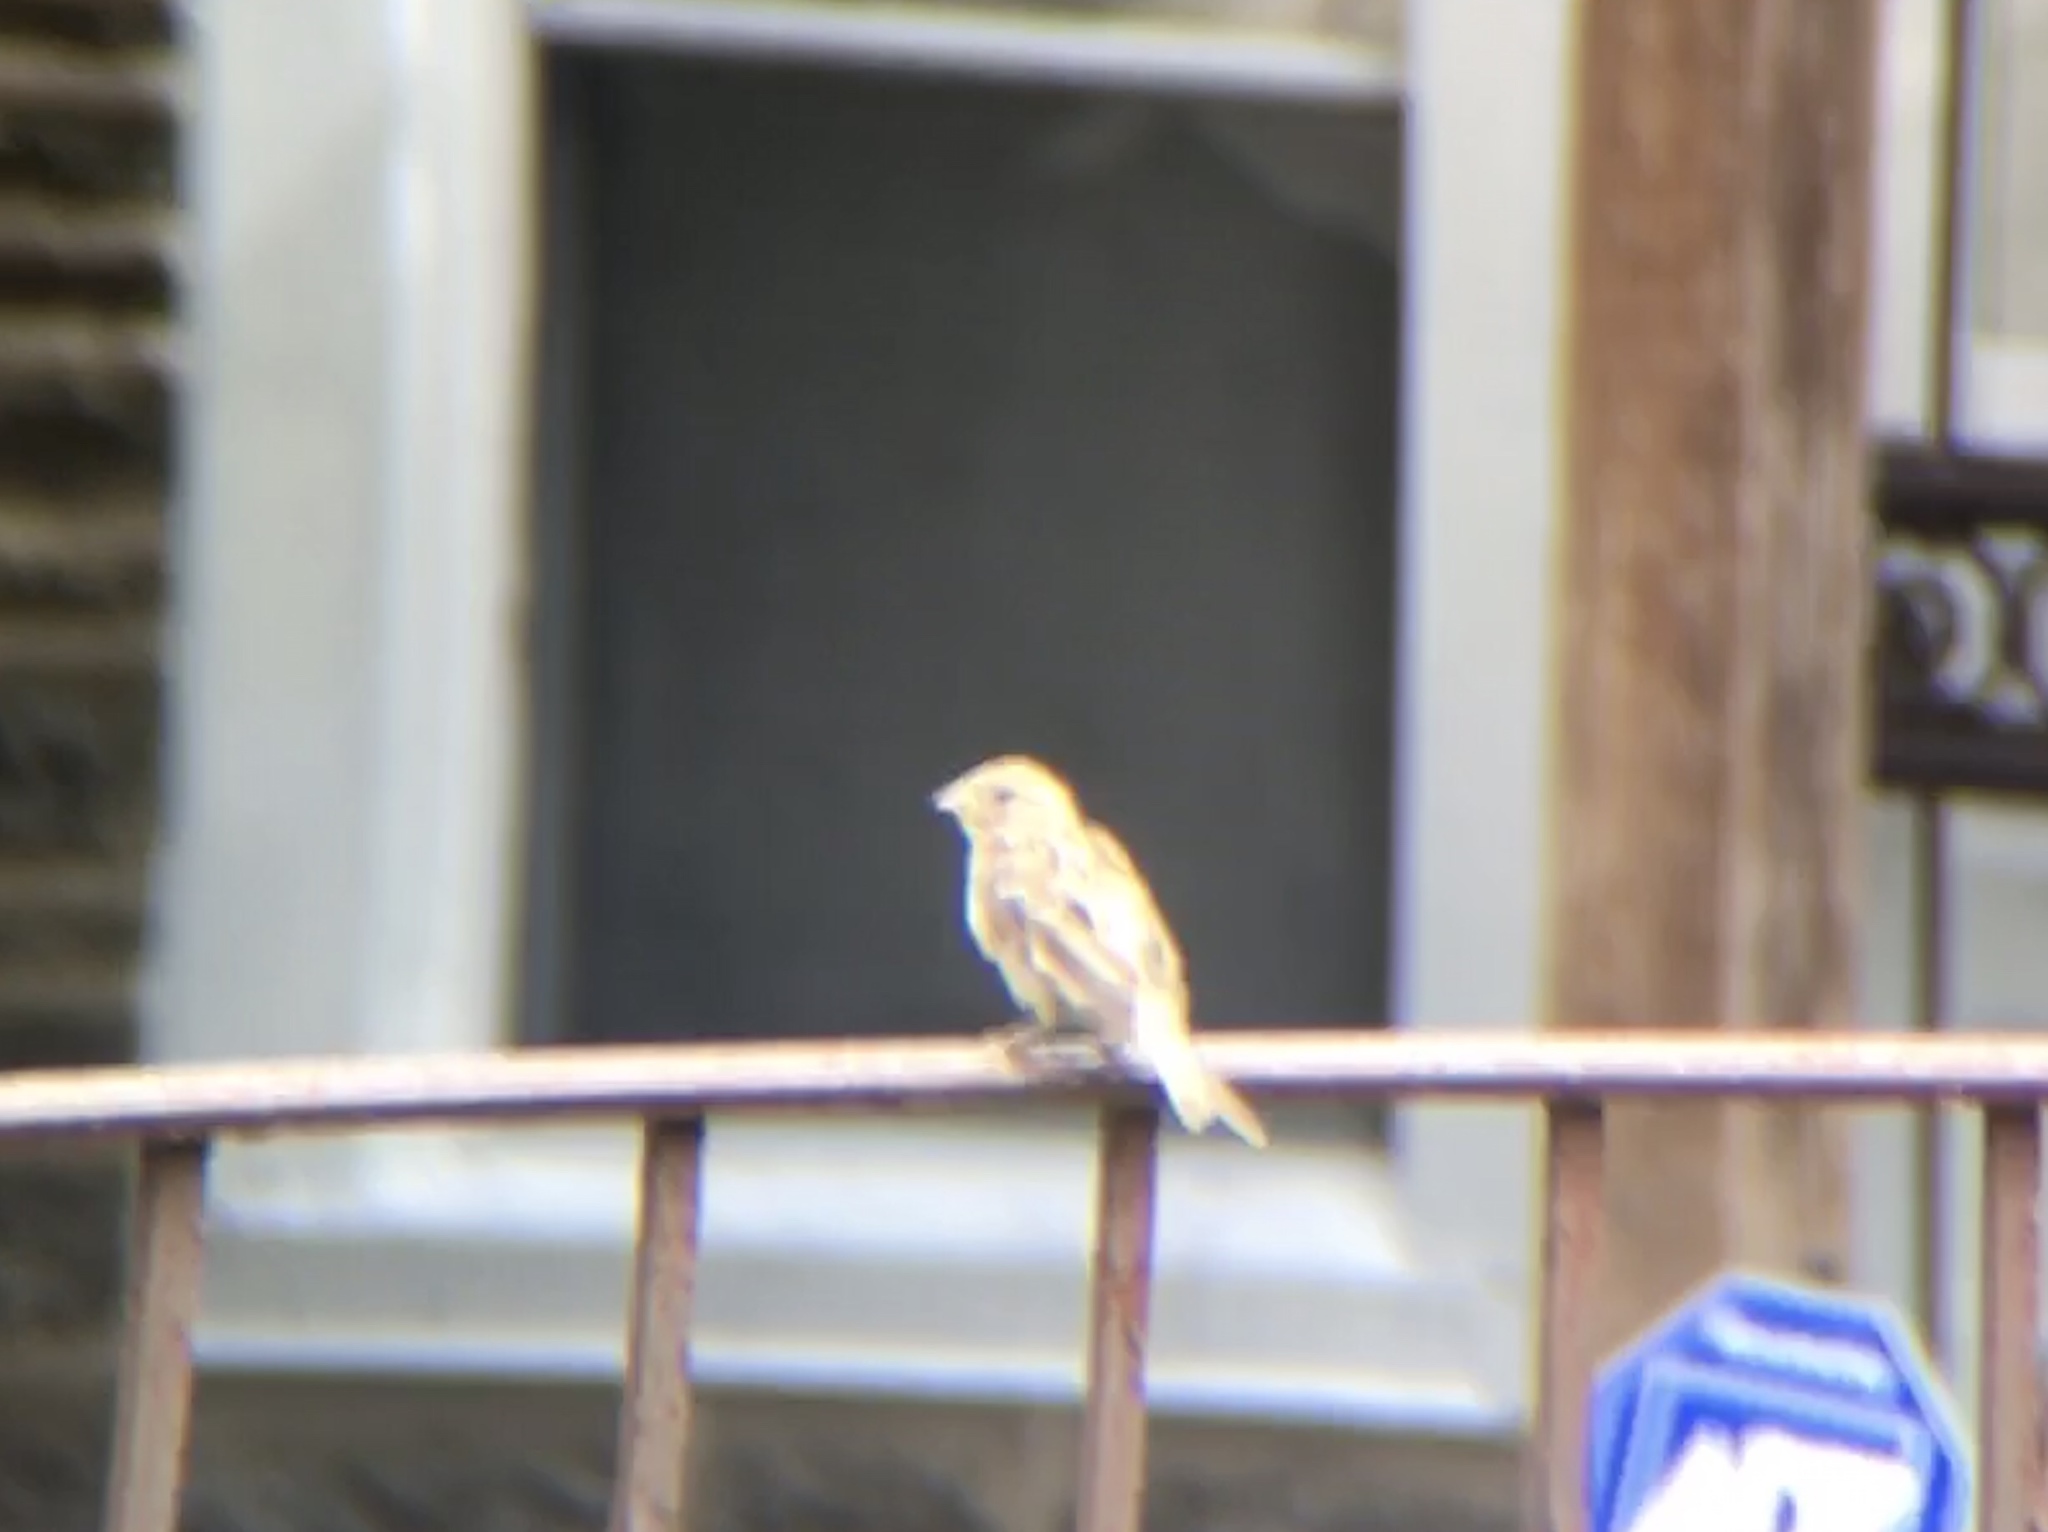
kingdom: Animalia
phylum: Chordata
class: Aves
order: Passeriformes
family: Passeridae
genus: Passer
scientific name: Passer domesticus
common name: House sparrow
